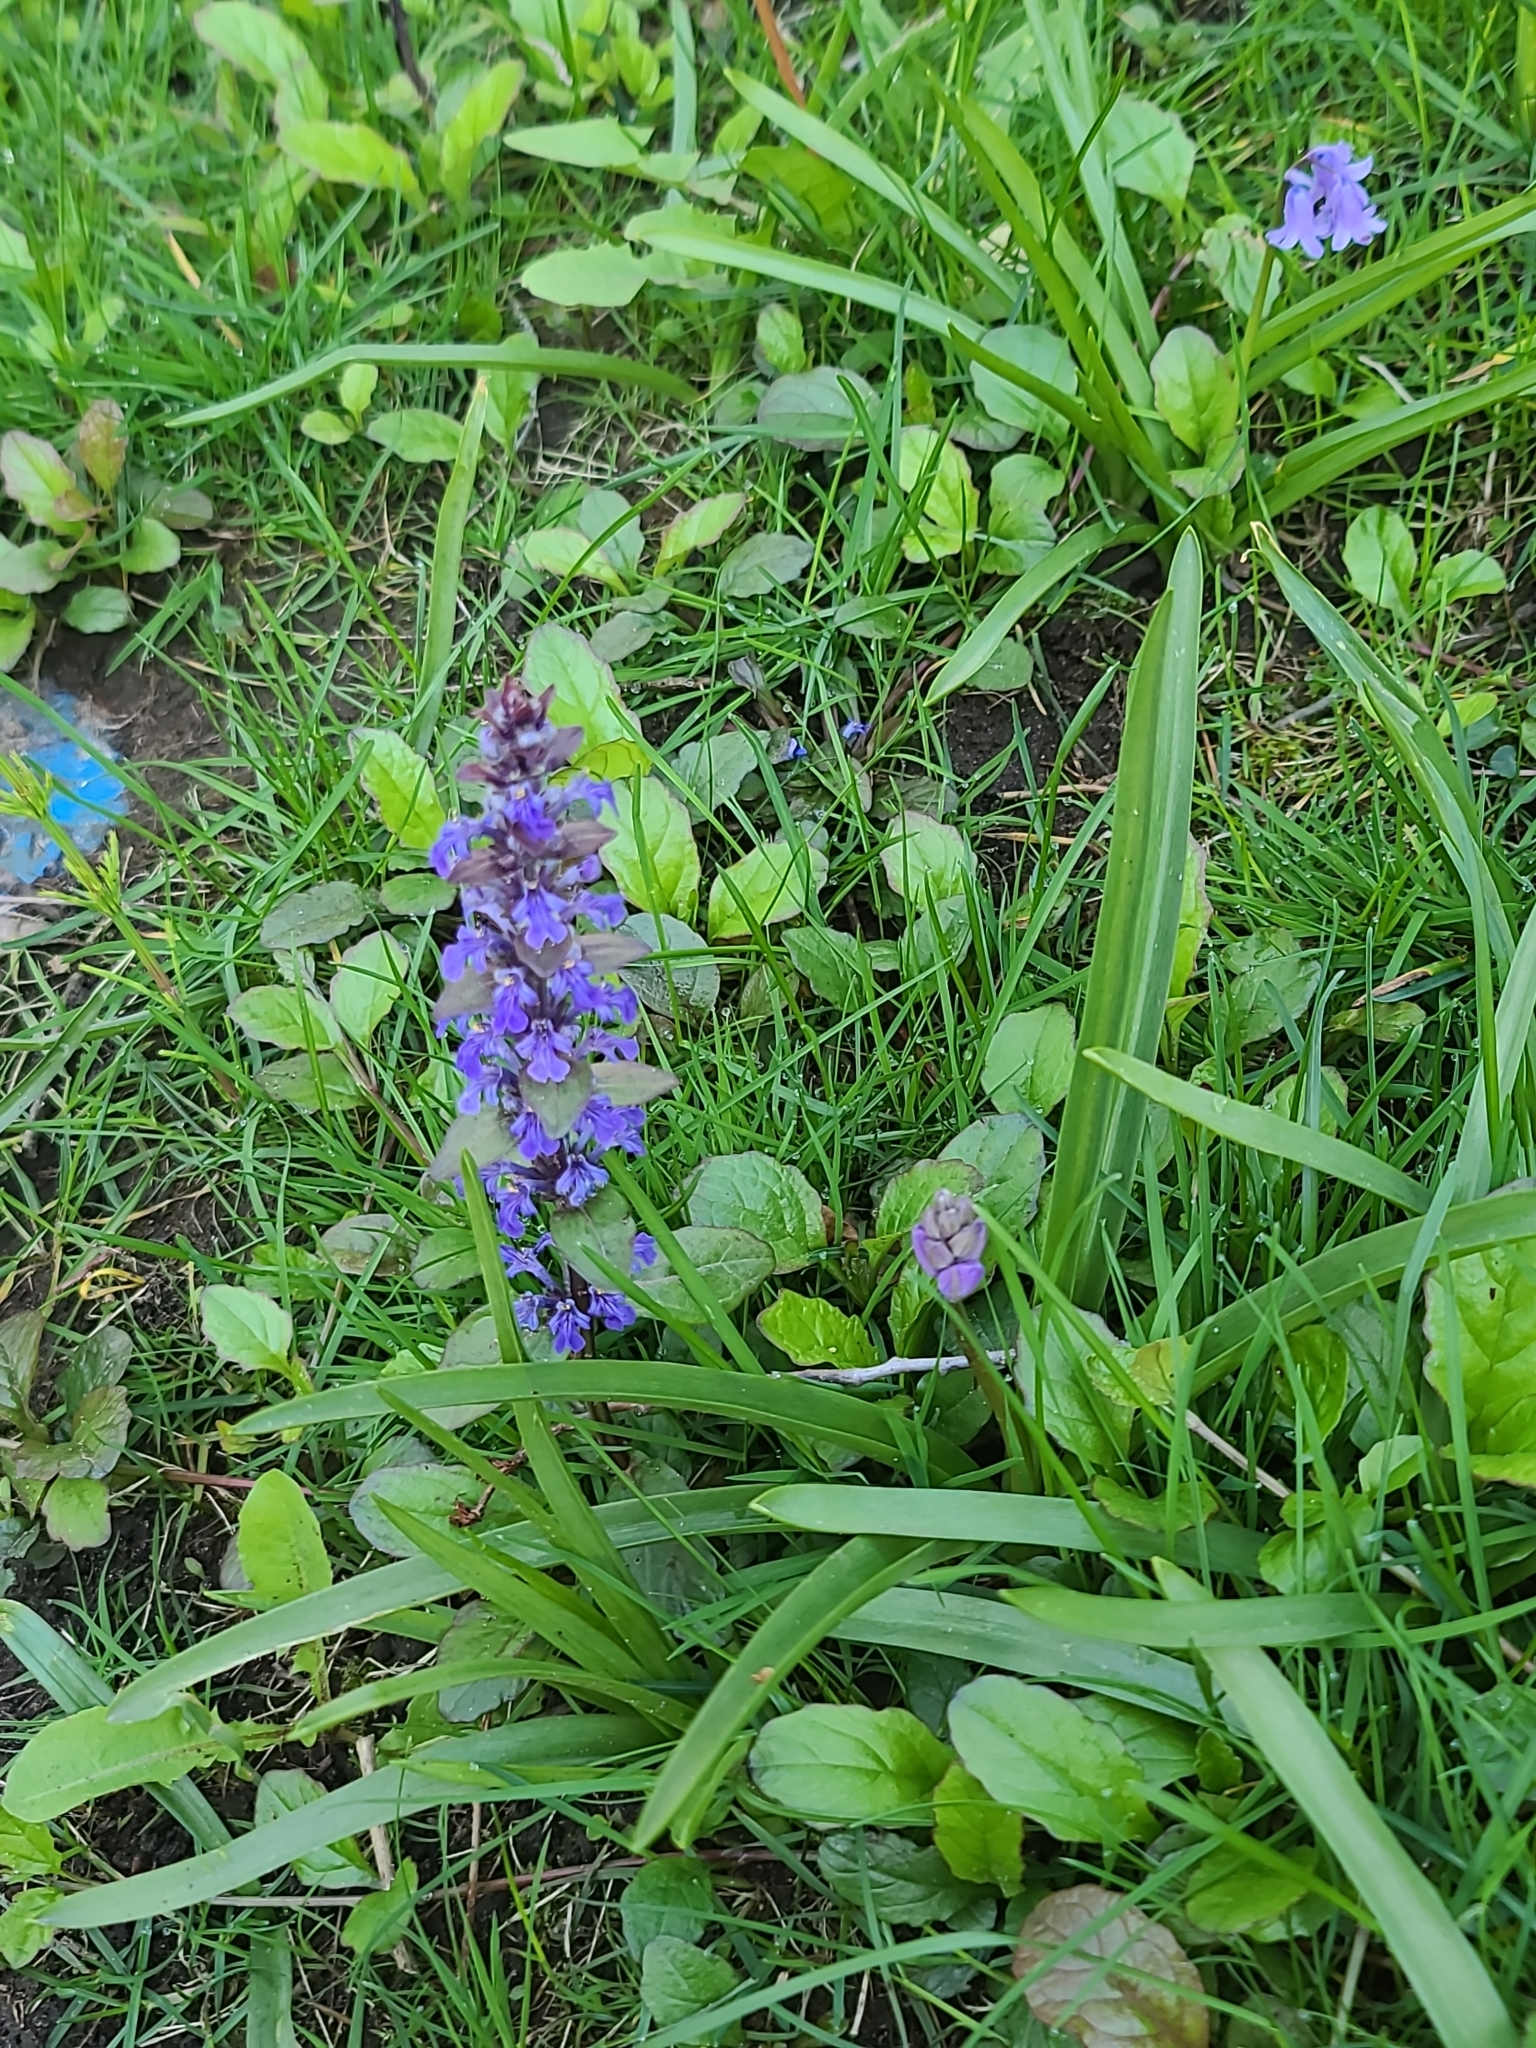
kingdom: Plantae
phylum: Tracheophyta
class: Magnoliopsida
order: Lamiales
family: Lamiaceae
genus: Ajuga
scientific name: Ajuga reptans
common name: Bugle
